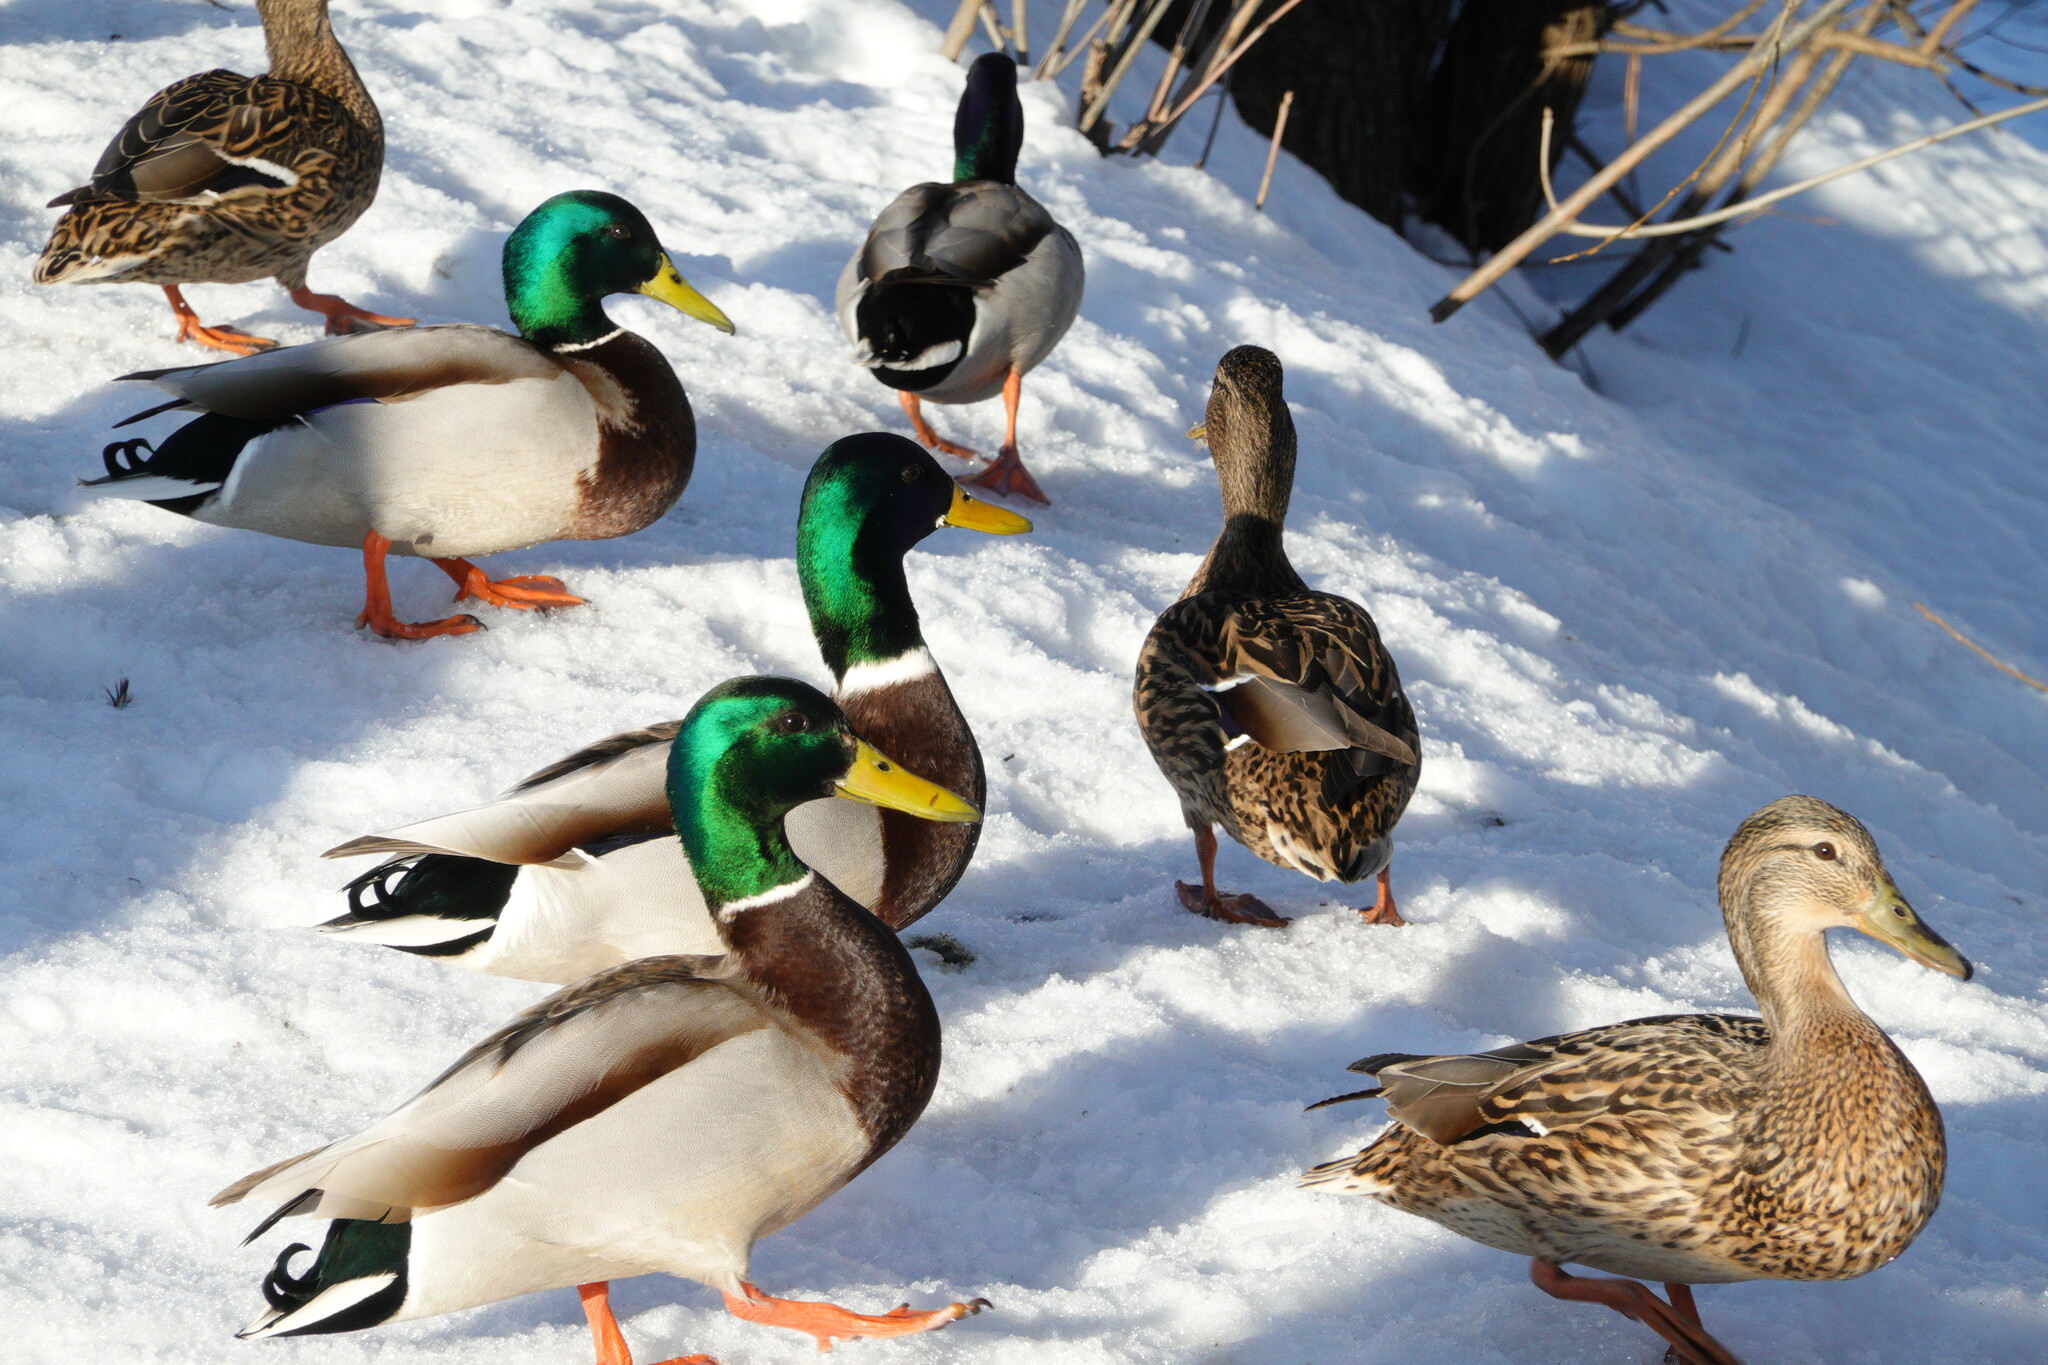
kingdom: Animalia
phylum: Chordata
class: Aves
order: Anseriformes
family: Anatidae
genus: Anas
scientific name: Anas platyrhynchos
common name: Mallard
